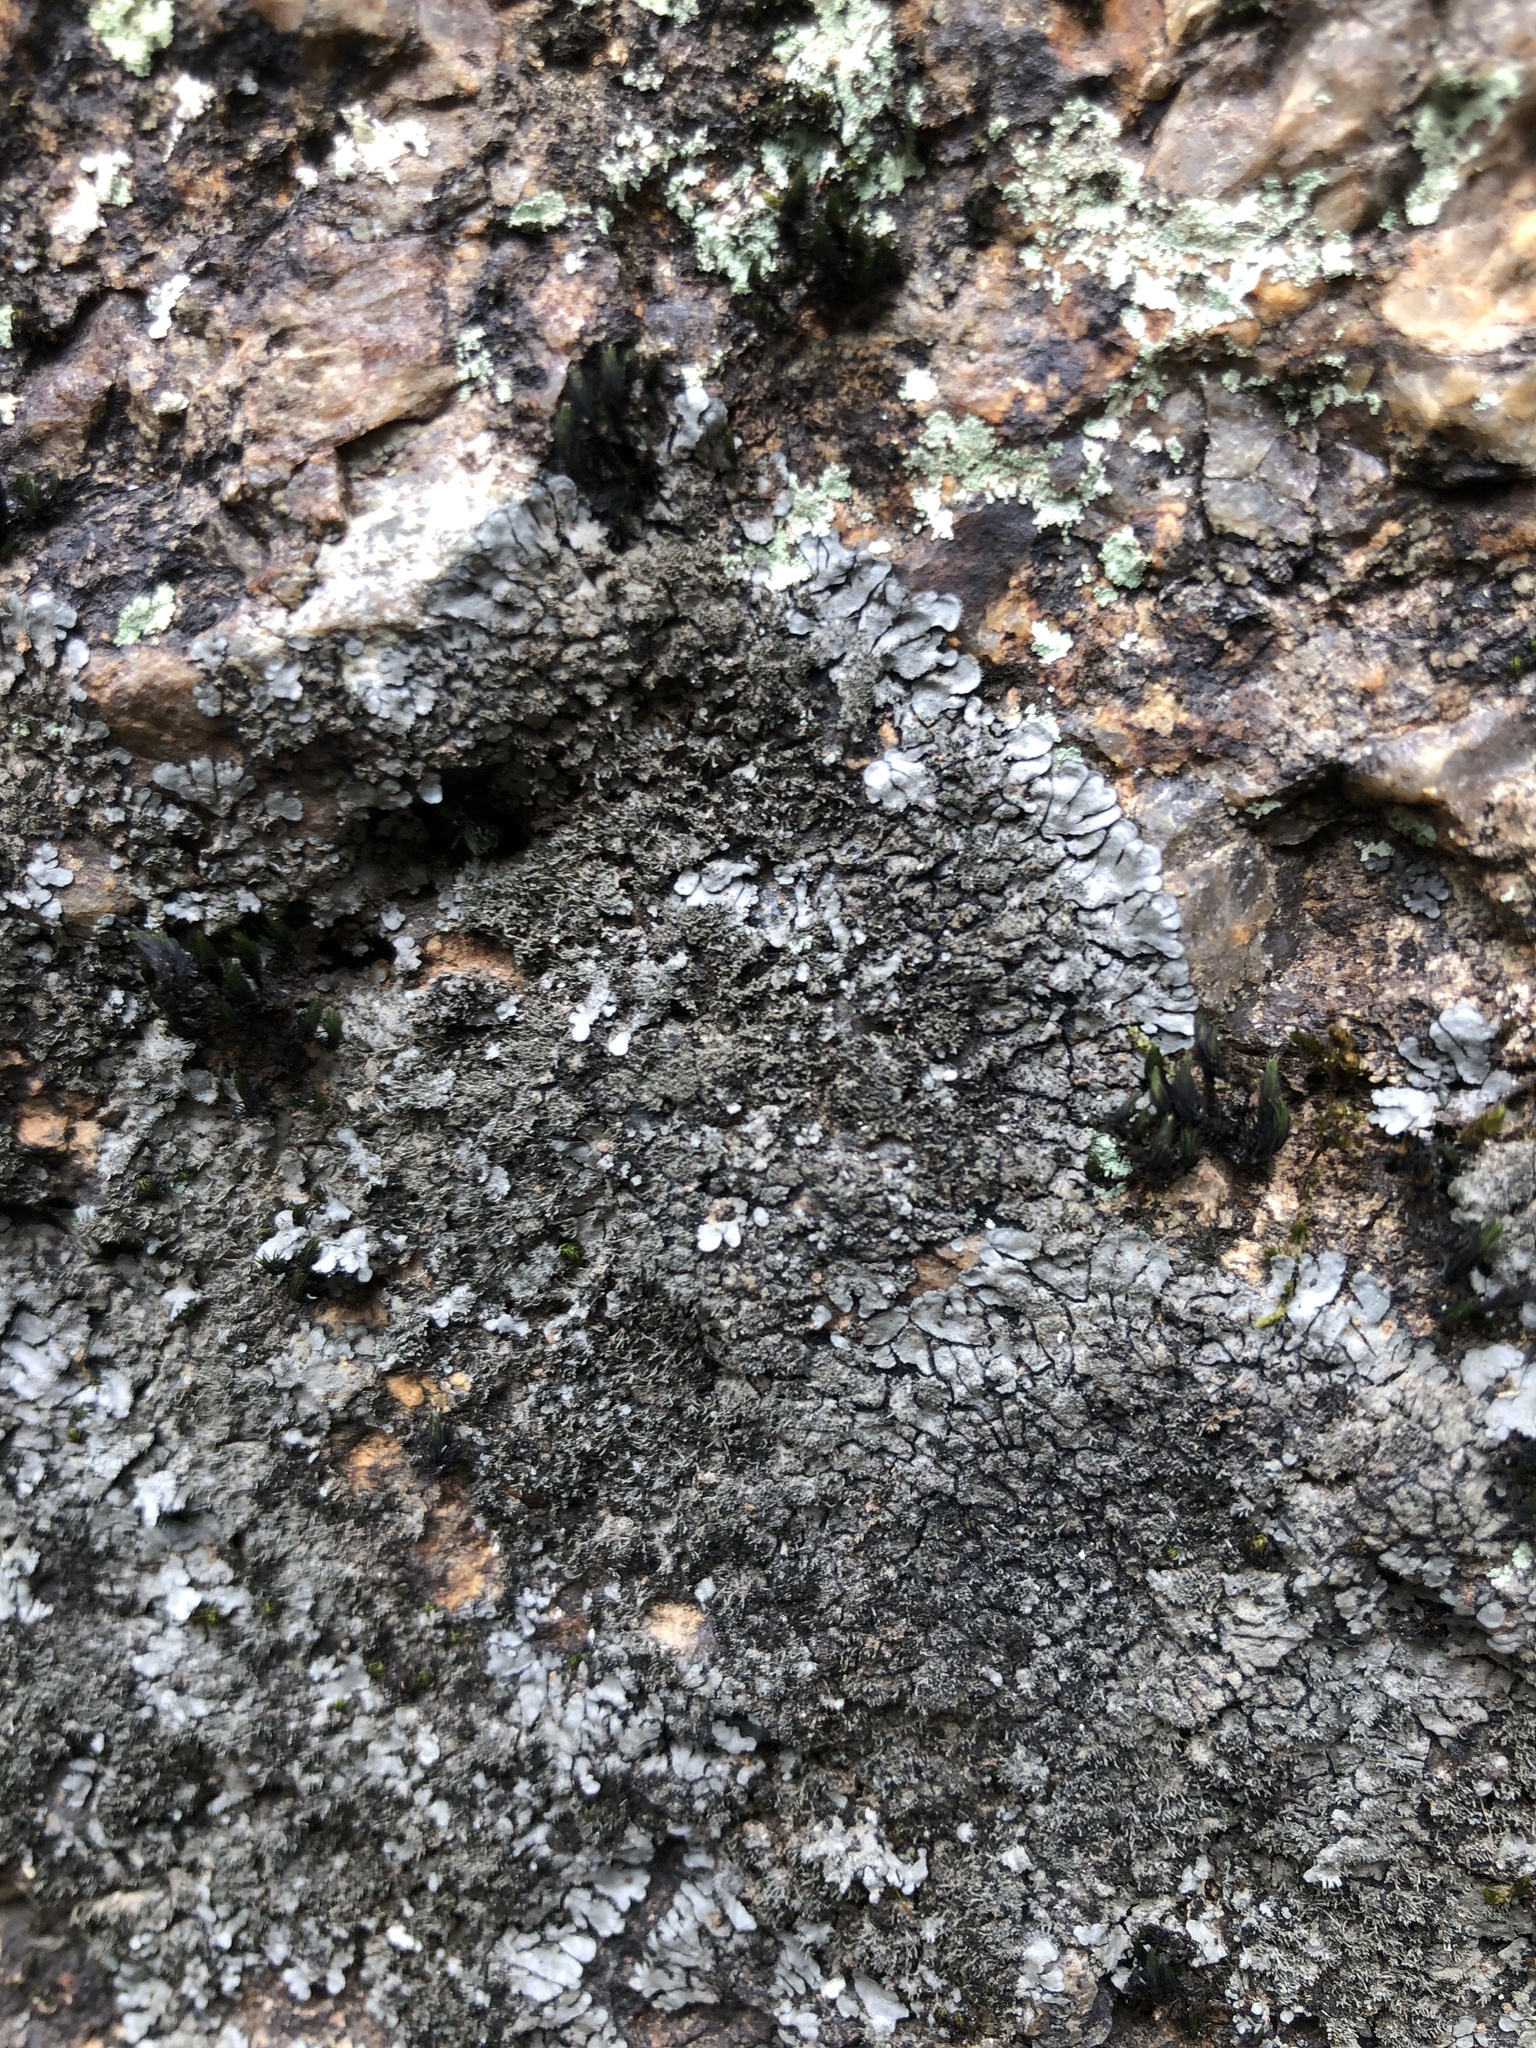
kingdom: Fungi
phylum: Ascomycota
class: Lecanoromycetes
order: Peltigerales
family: Coccocarpiaceae
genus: Coccocarpia
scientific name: Coccocarpia palmicola
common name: Salted shell lichen
